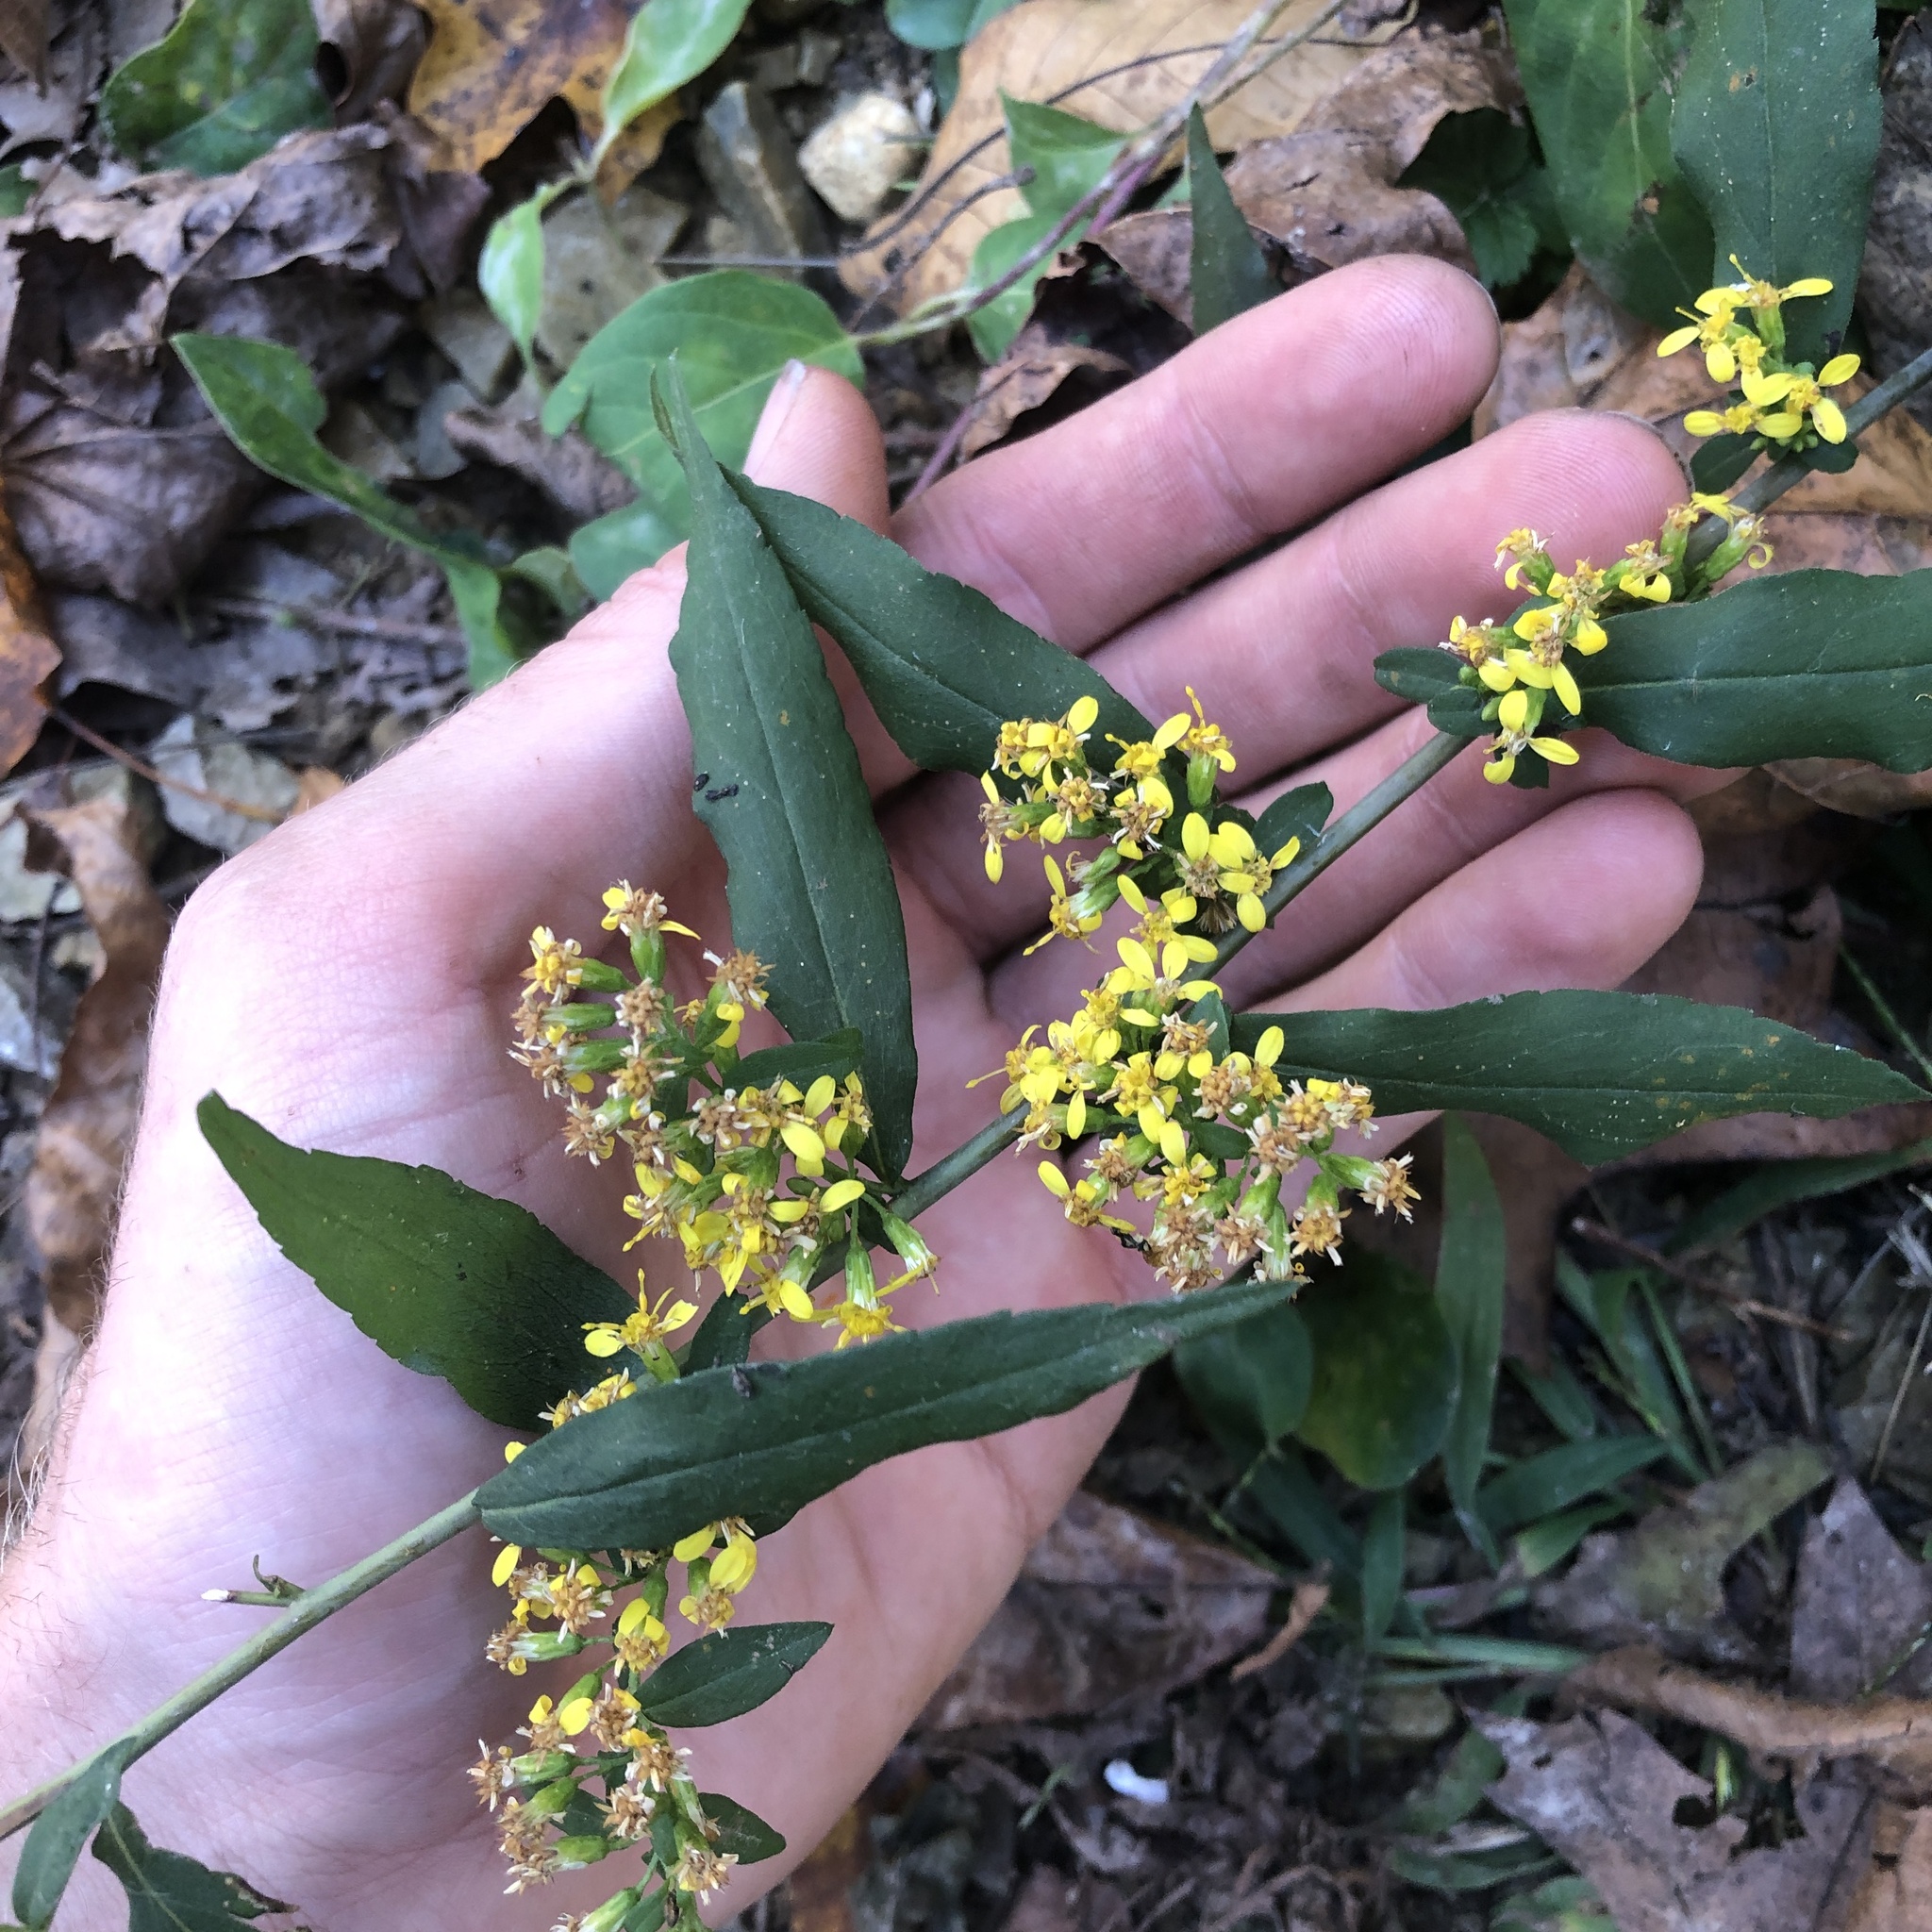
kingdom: Plantae
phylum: Tracheophyta
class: Magnoliopsida
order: Asterales
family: Asteraceae
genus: Solidago
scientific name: Solidago caesia
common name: Woodland goldenrod
